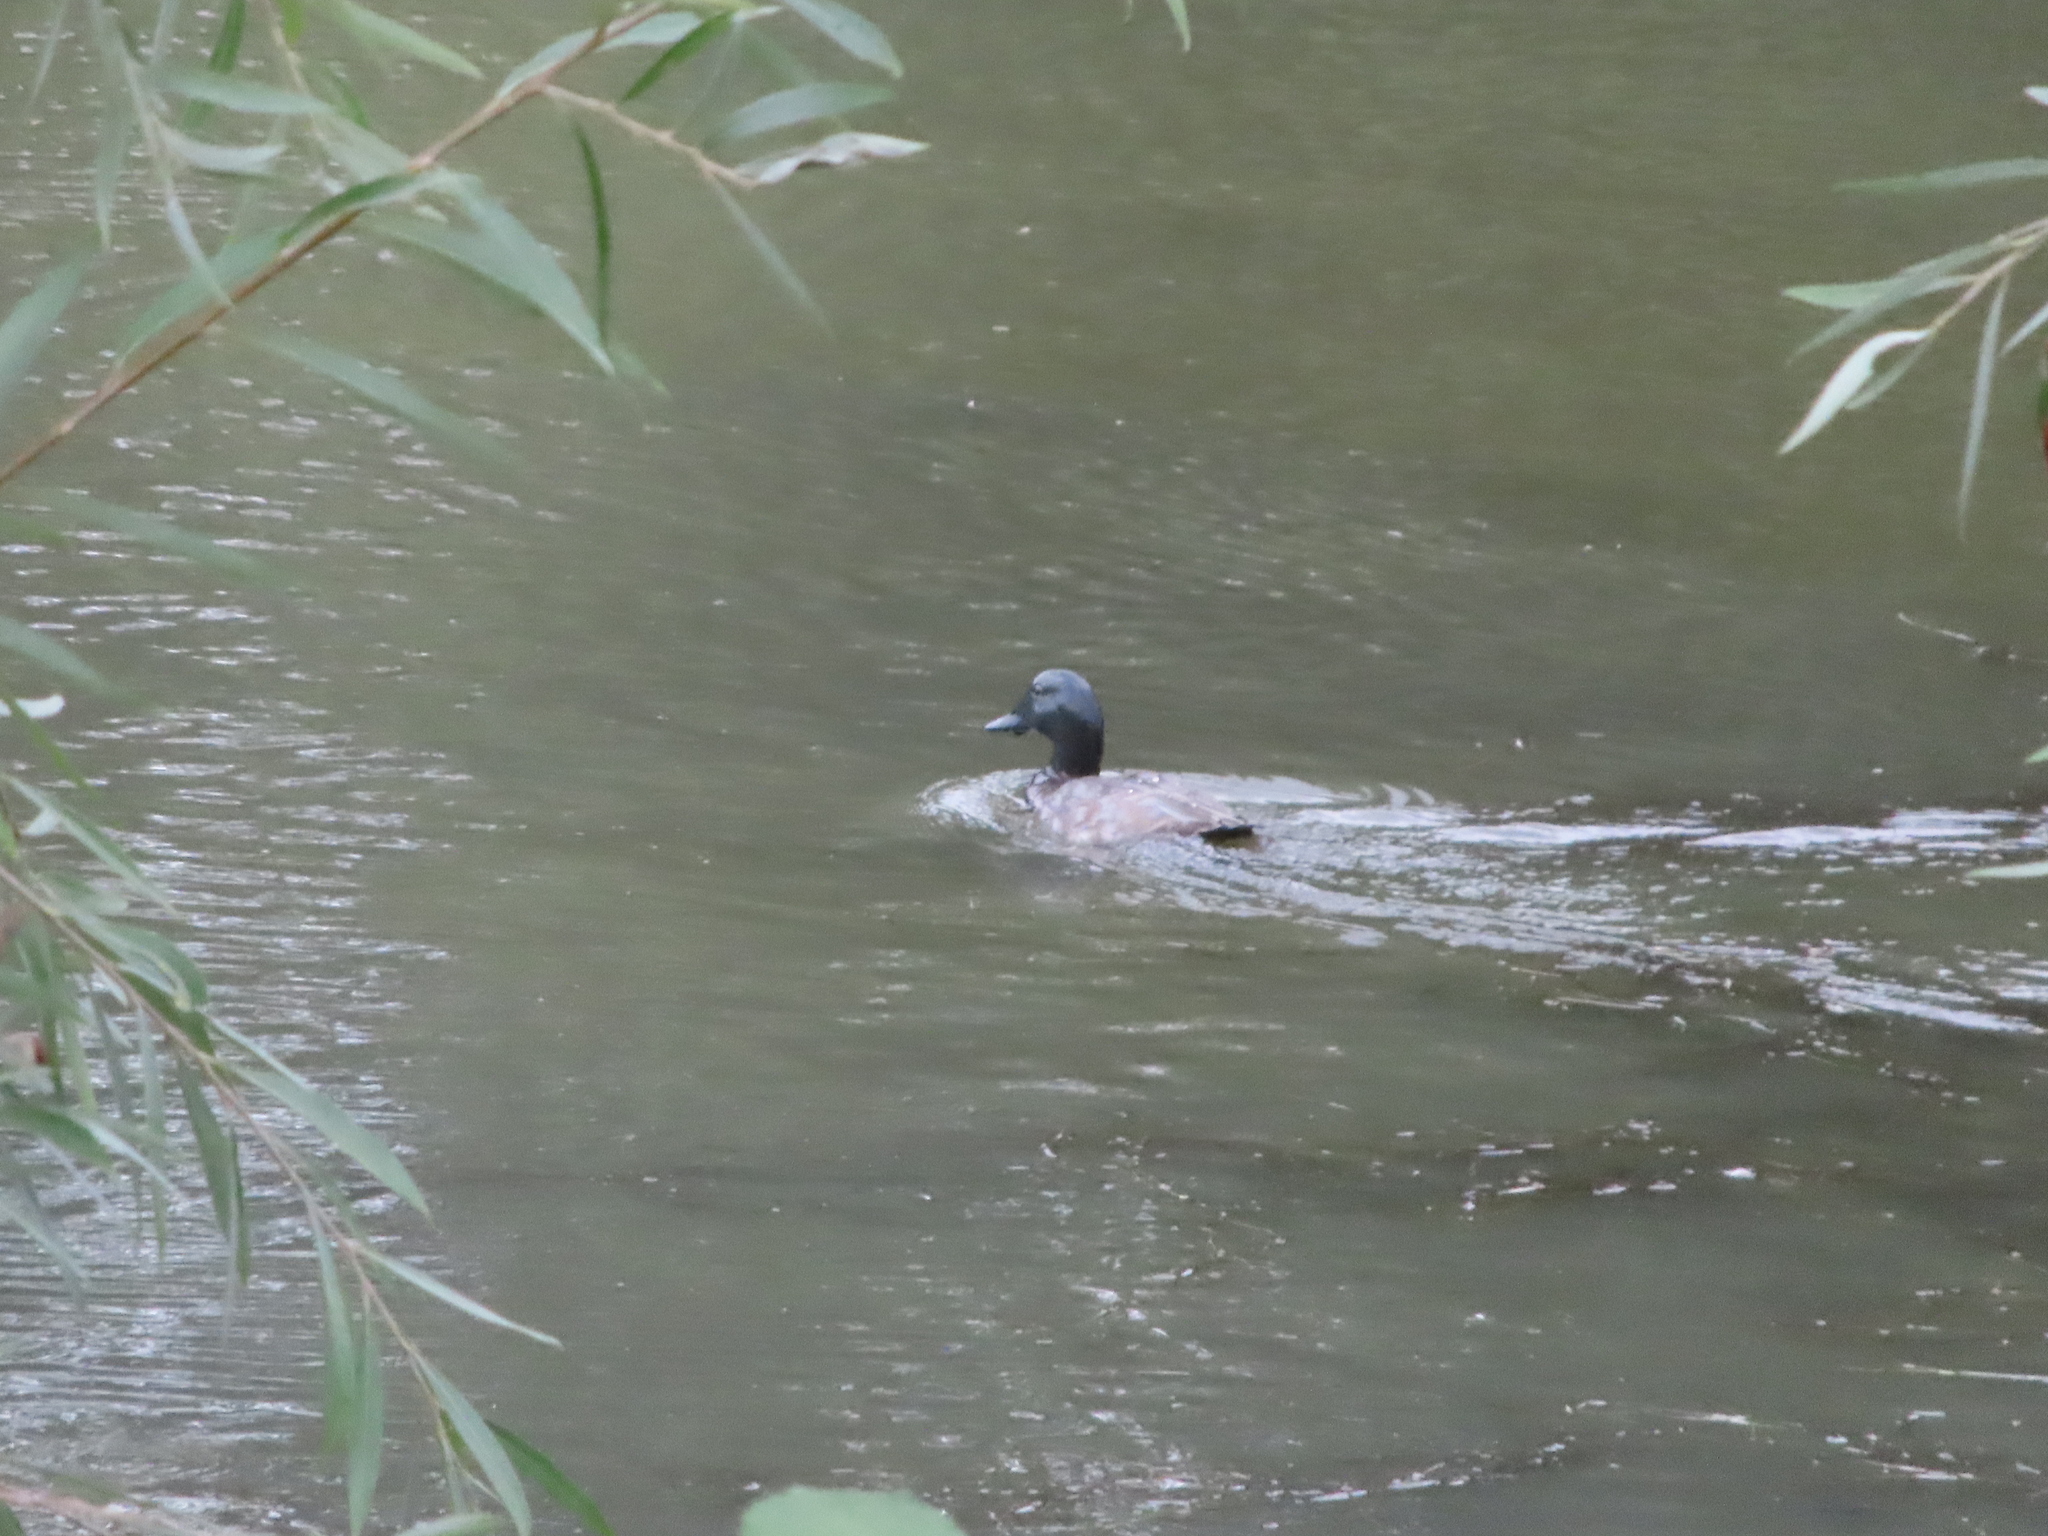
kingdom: Animalia
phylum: Chordata
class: Aves
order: Anseriformes
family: Anatidae
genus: Aythya
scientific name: Aythya ferina
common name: Common pochard
